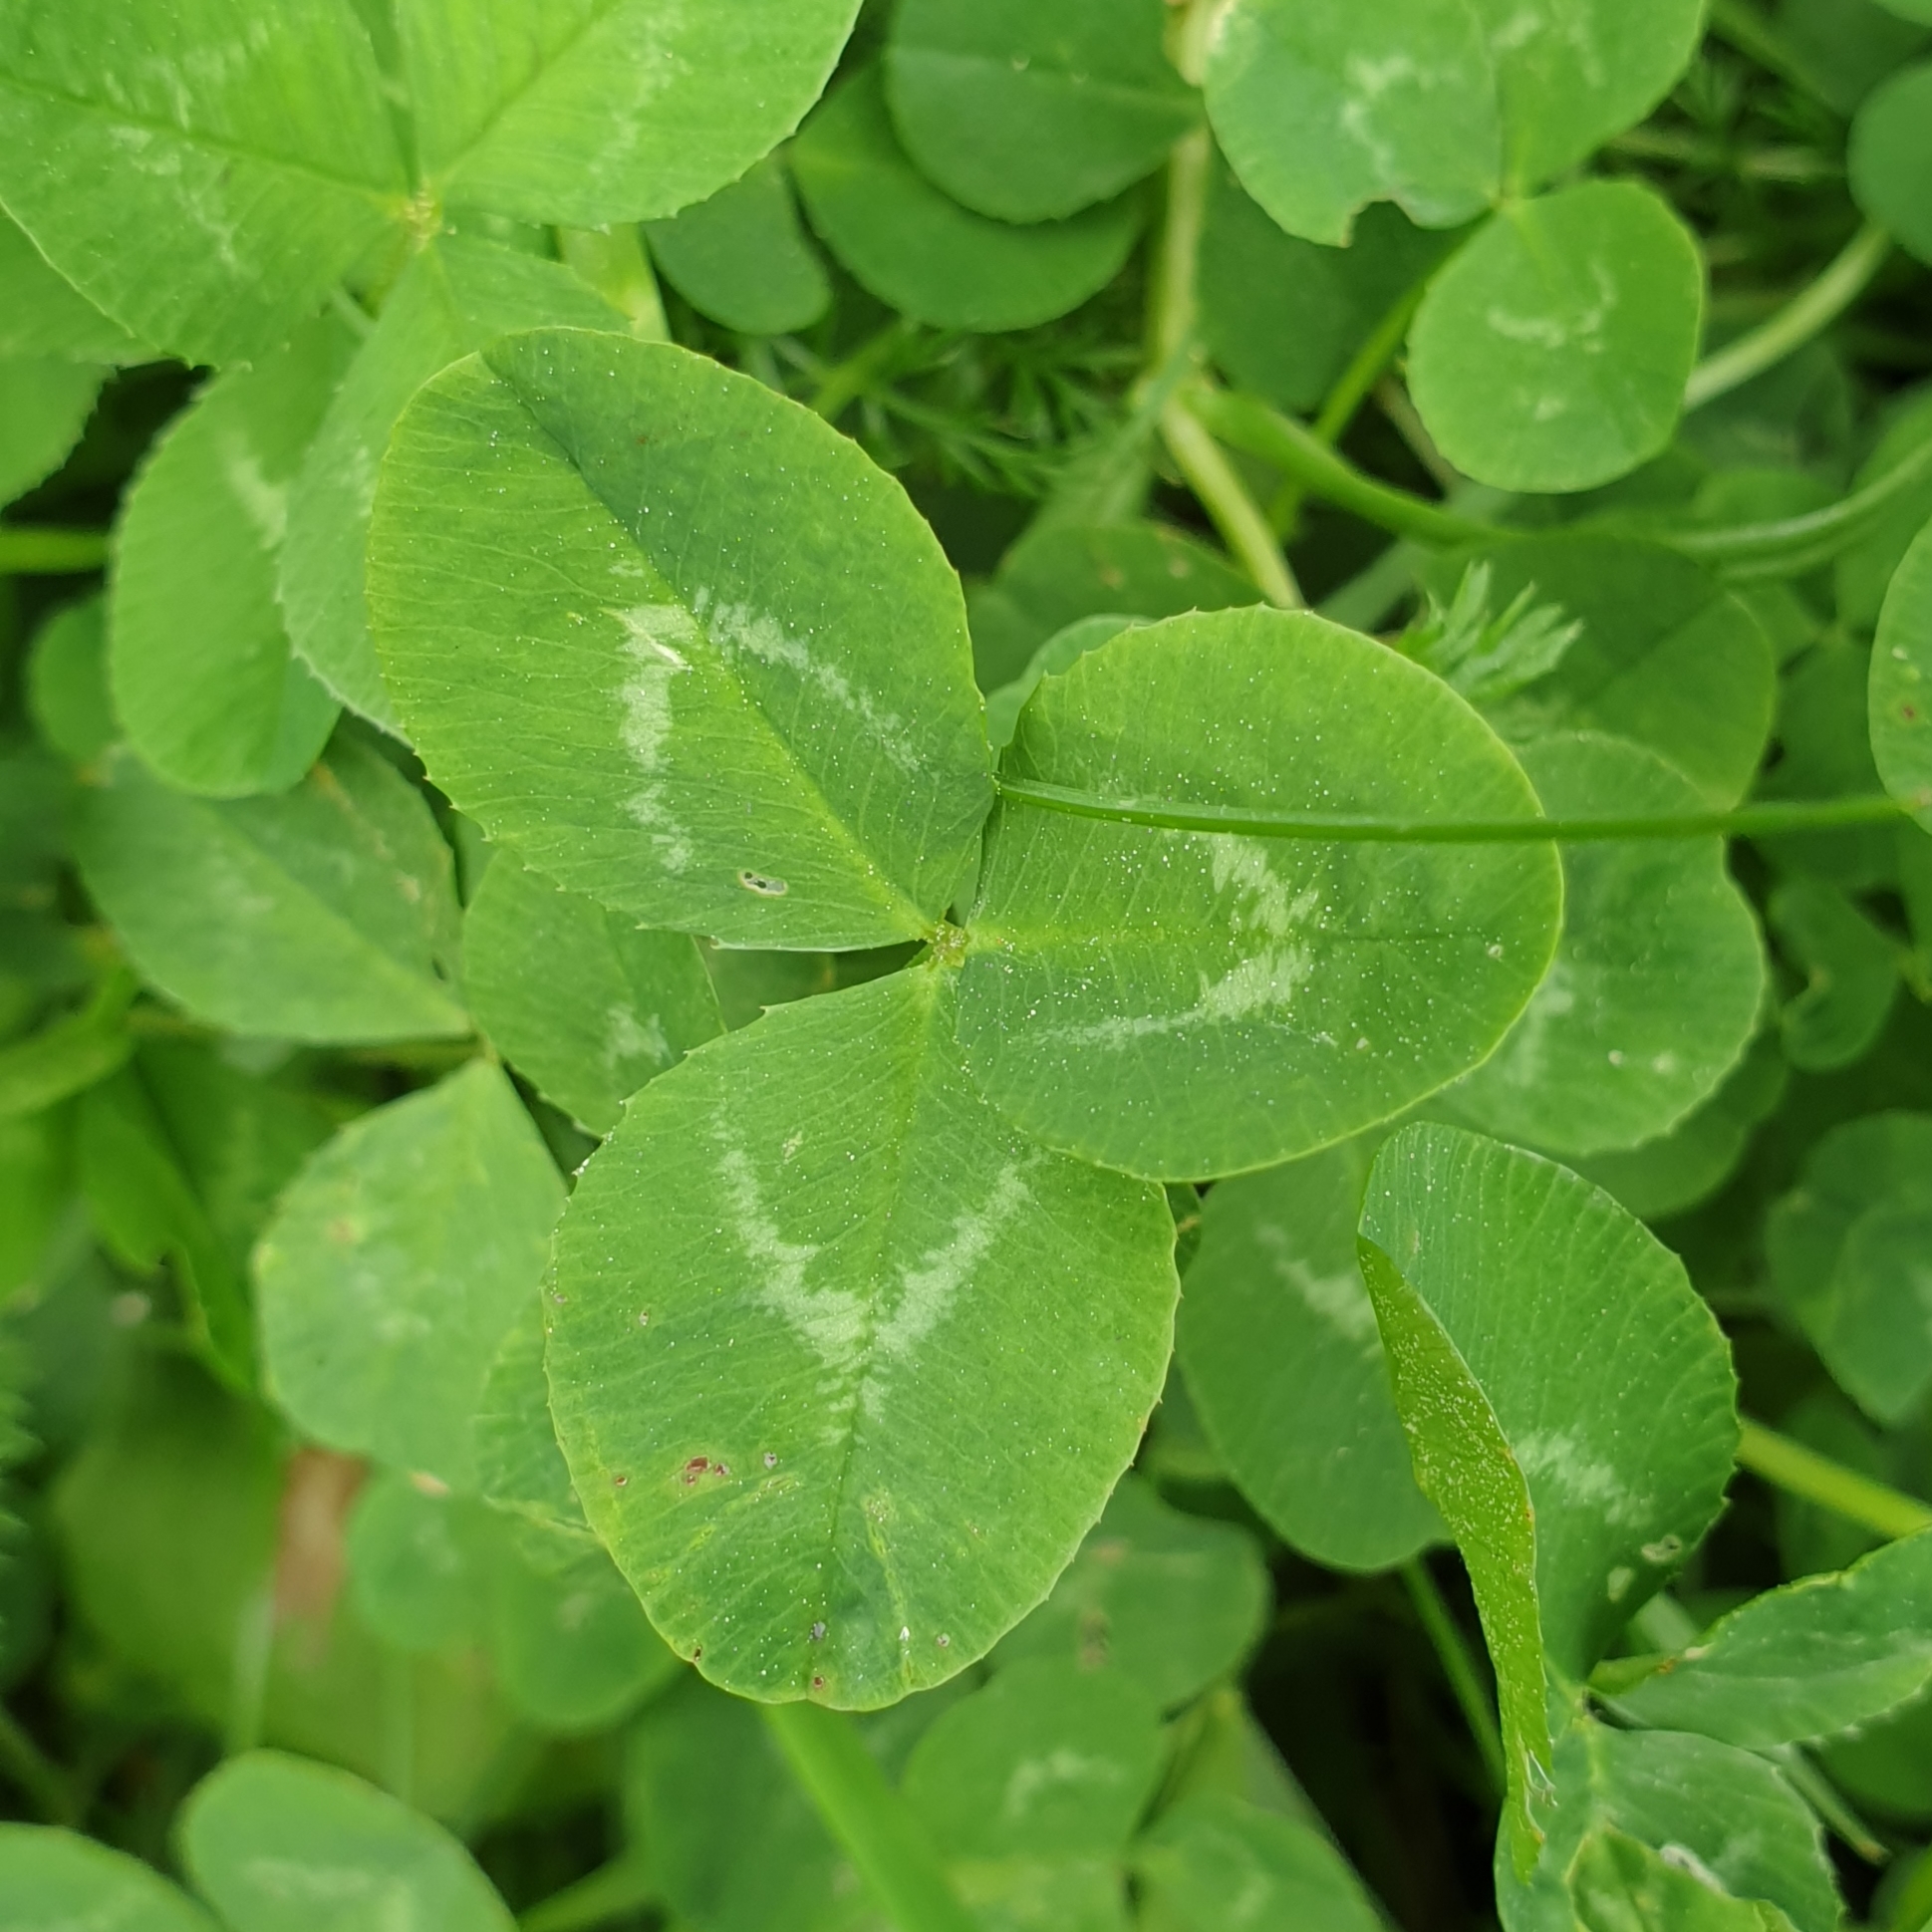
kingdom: Plantae
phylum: Tracheophyta
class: Magnoliopsida
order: Fabales
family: Fabaceae
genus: Trifolium
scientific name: Trifolium repens
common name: White clover
